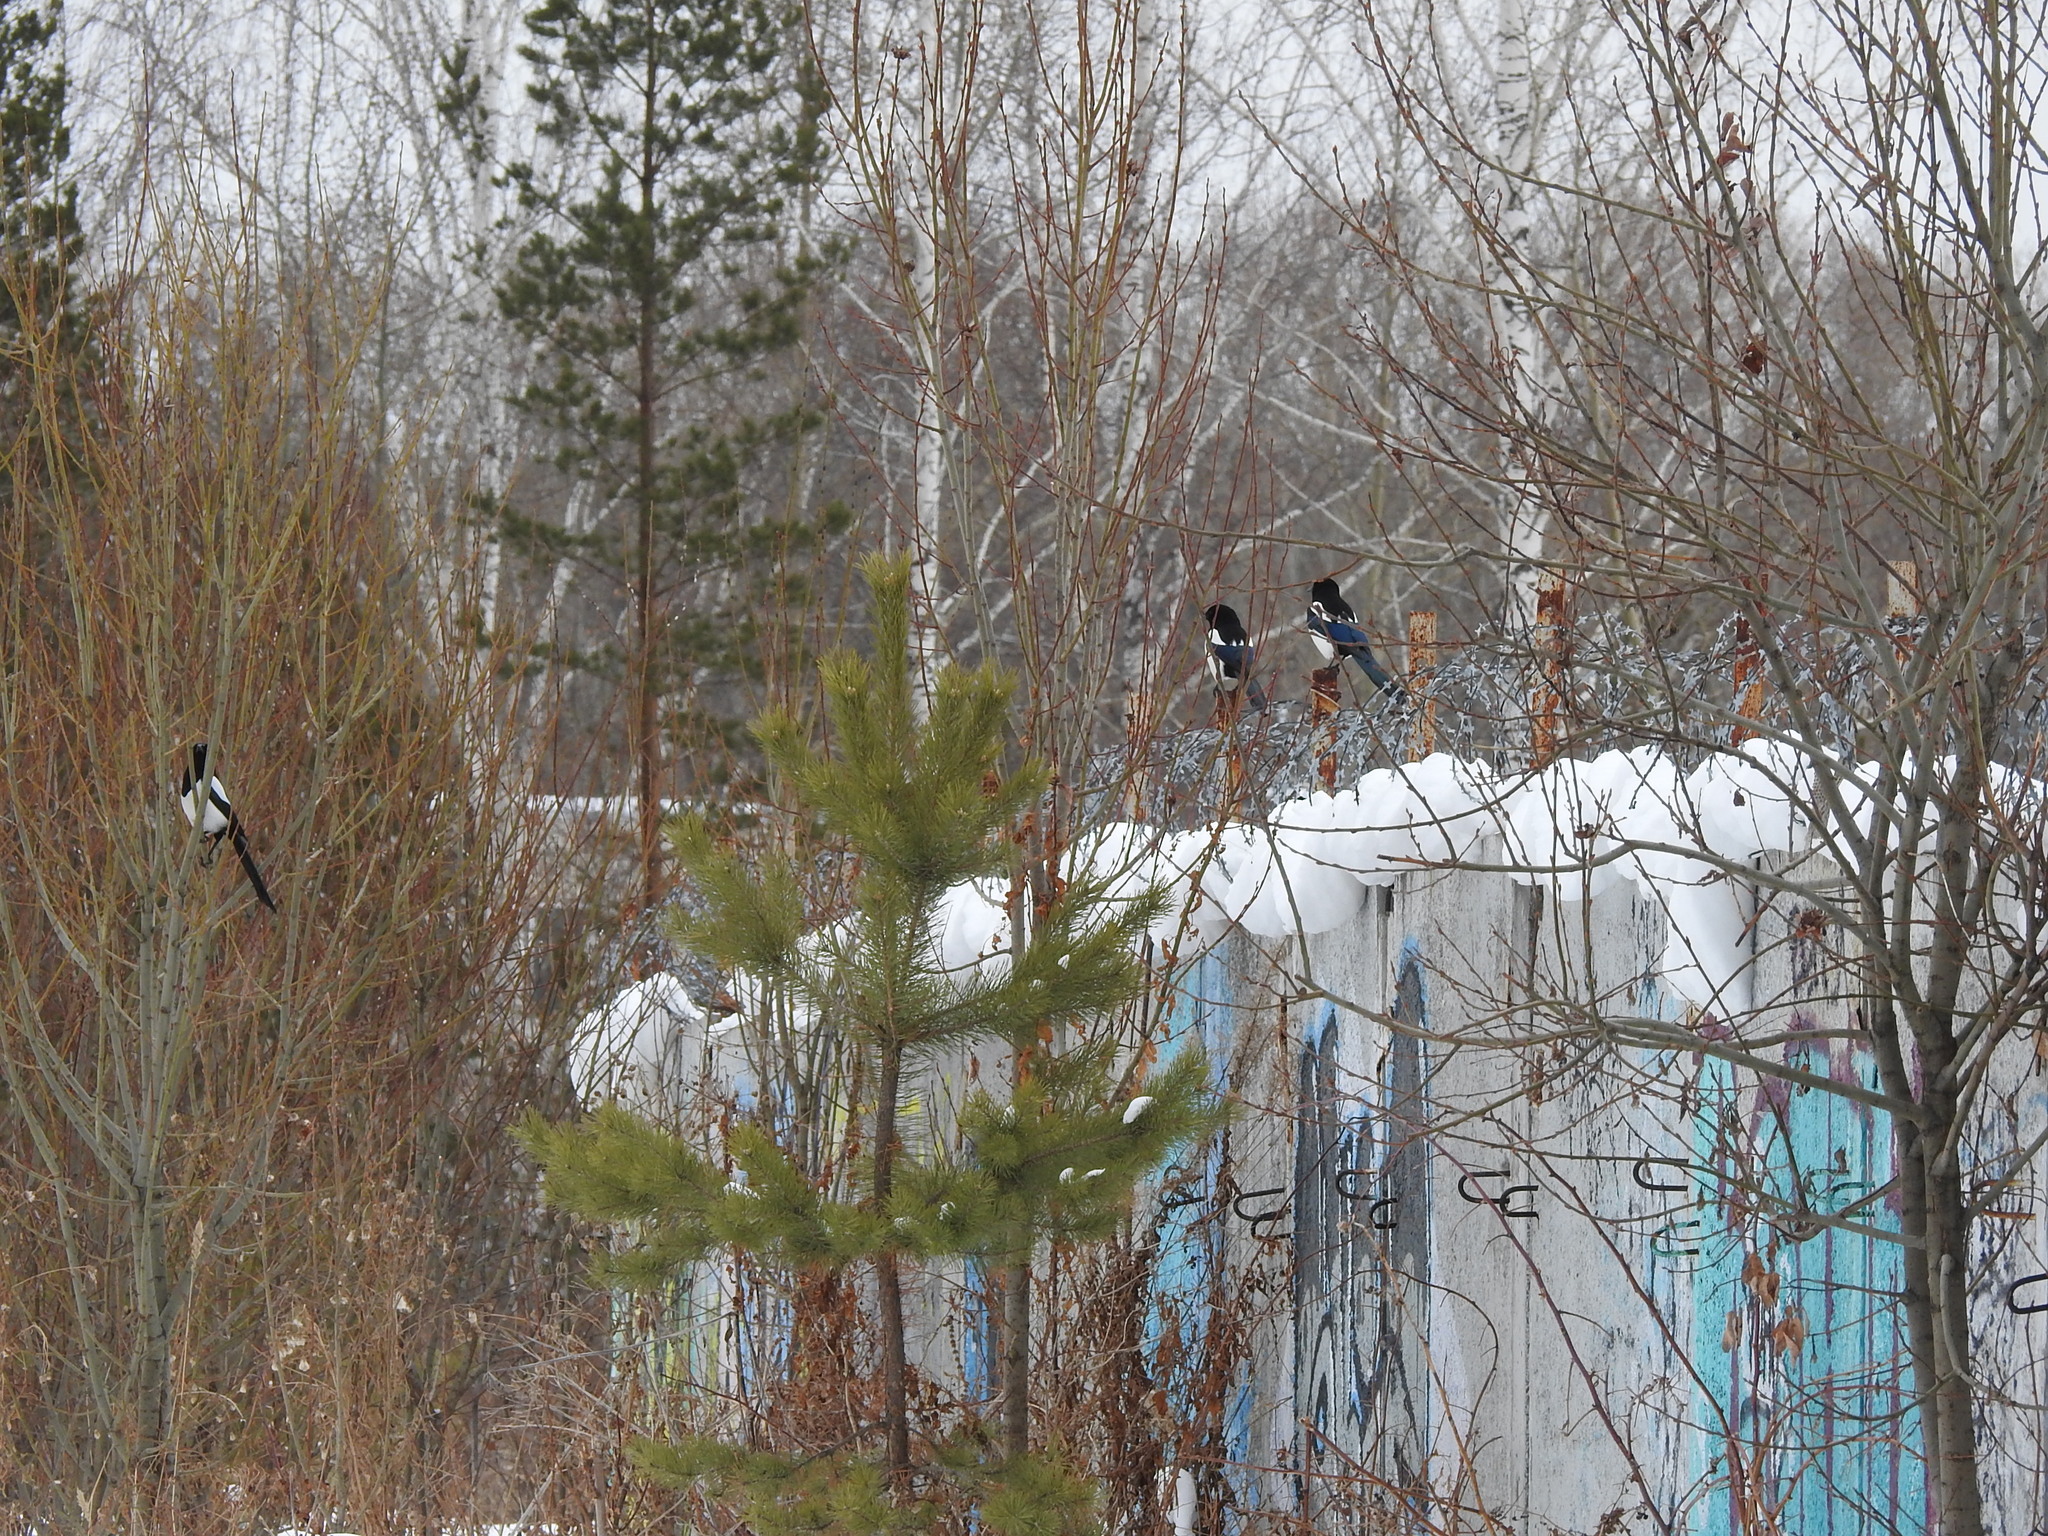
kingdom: Animalia
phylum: Chordata
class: Aves
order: Passeriformes
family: Corvidae
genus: Pica
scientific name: Pica pica
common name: Eurasian magpie
